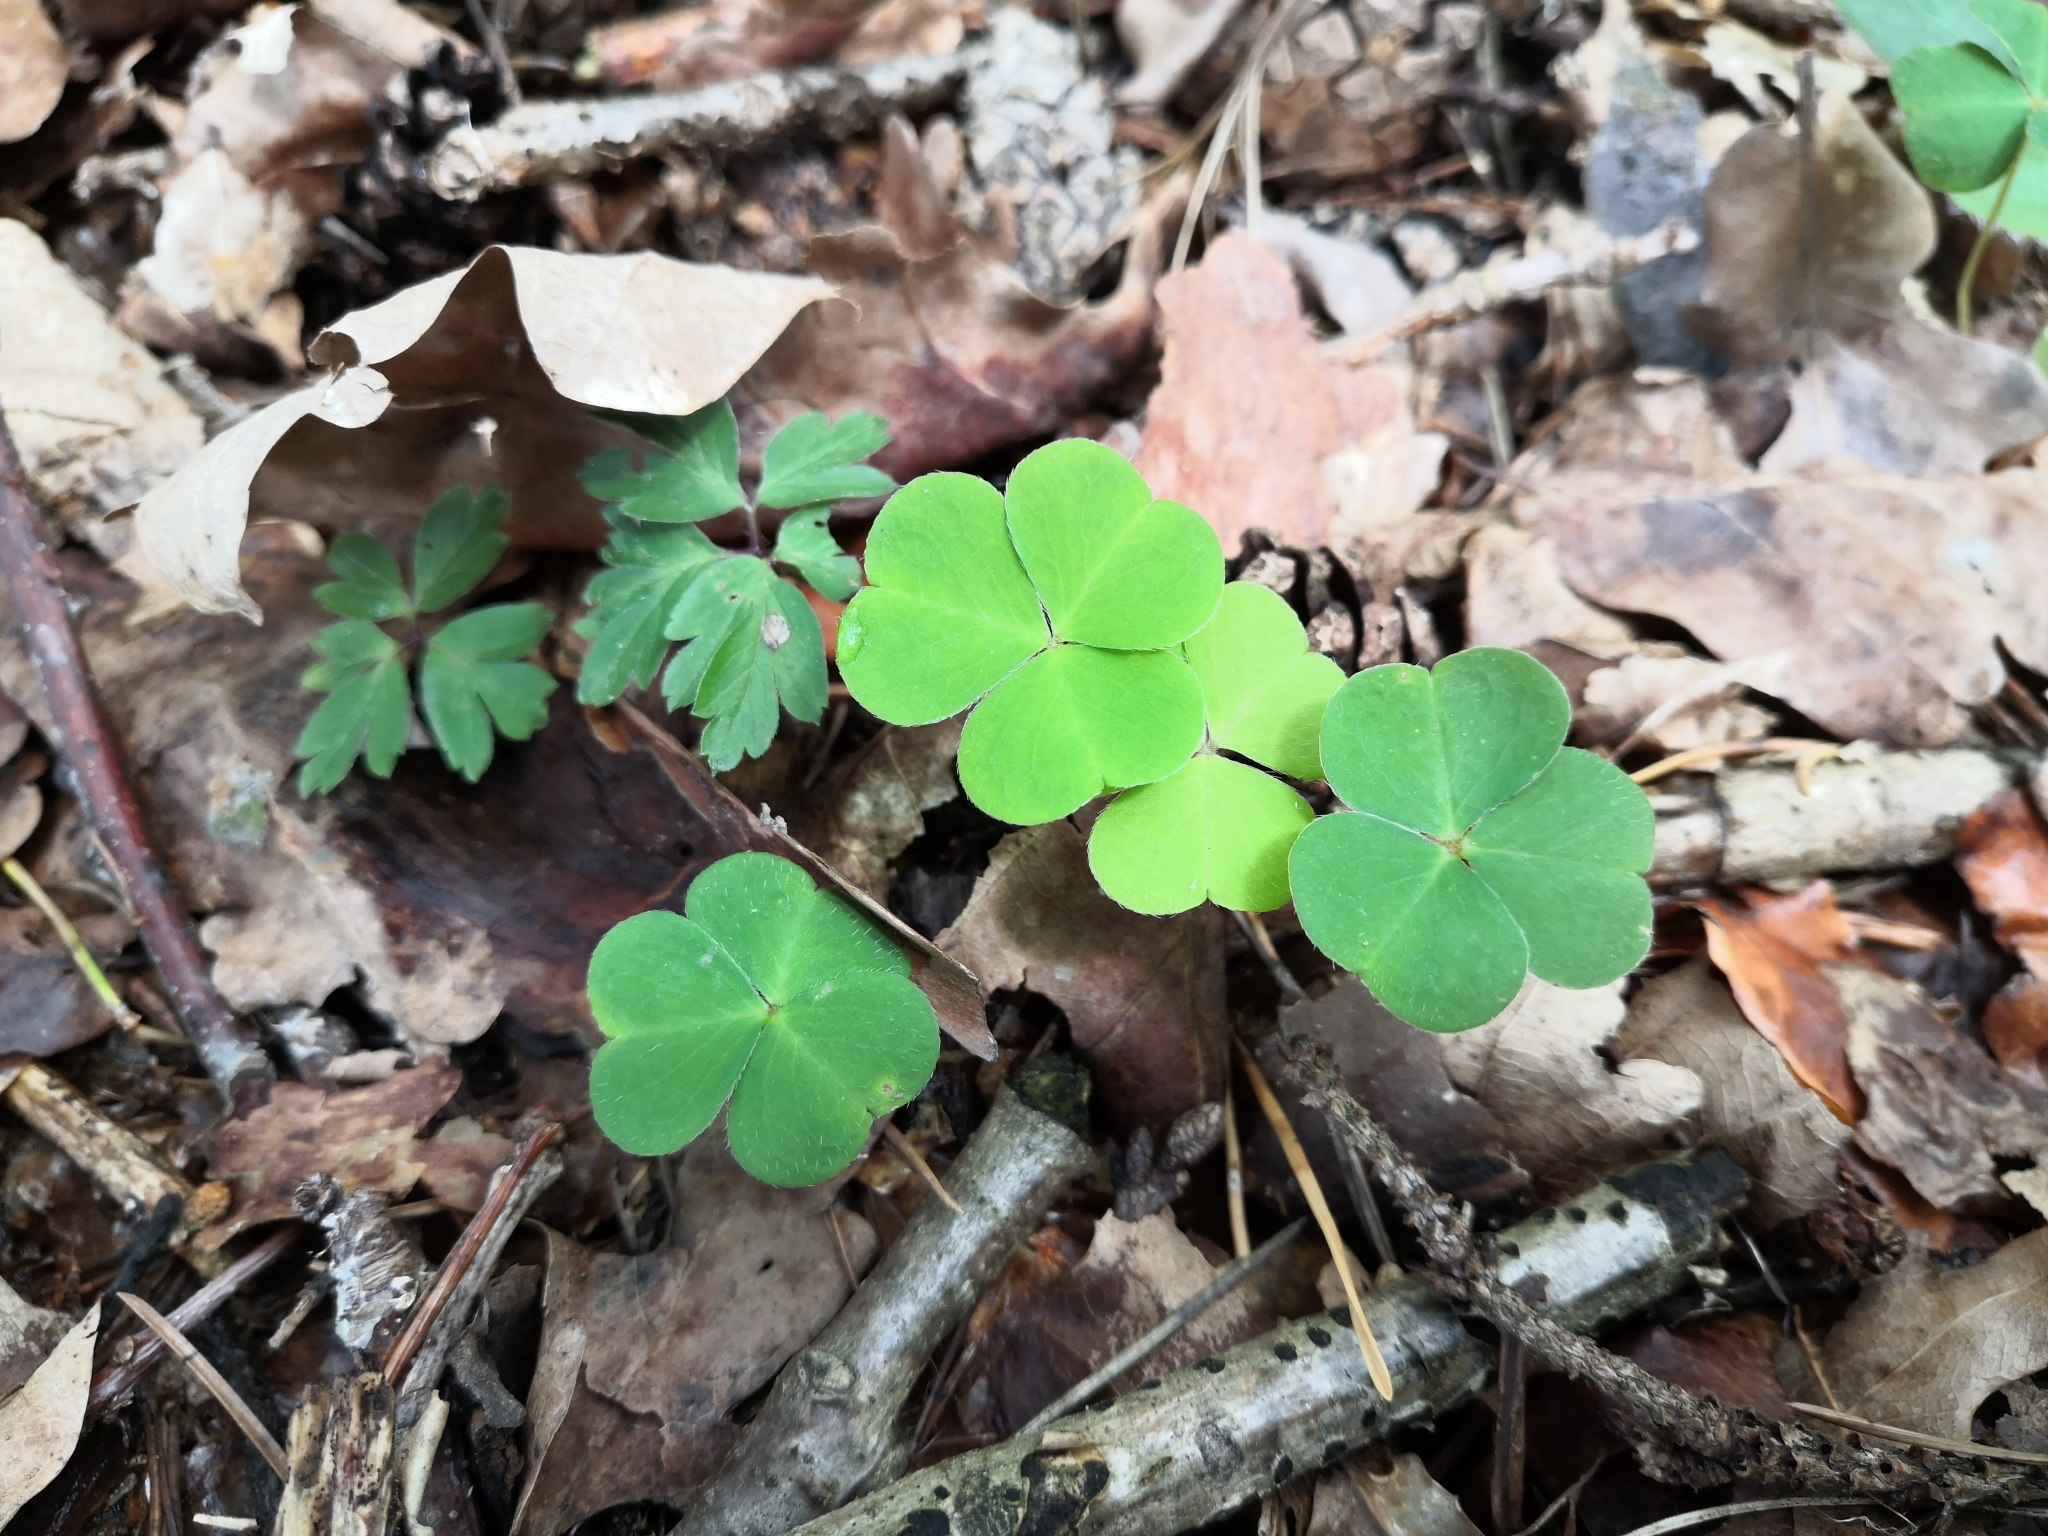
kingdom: Plantae
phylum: Tracheophyta
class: Magnoliopsida
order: Oxalidales
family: Oxalidaceae
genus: Oxalis
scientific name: Oxalis acetosella
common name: Wood-sorrel
